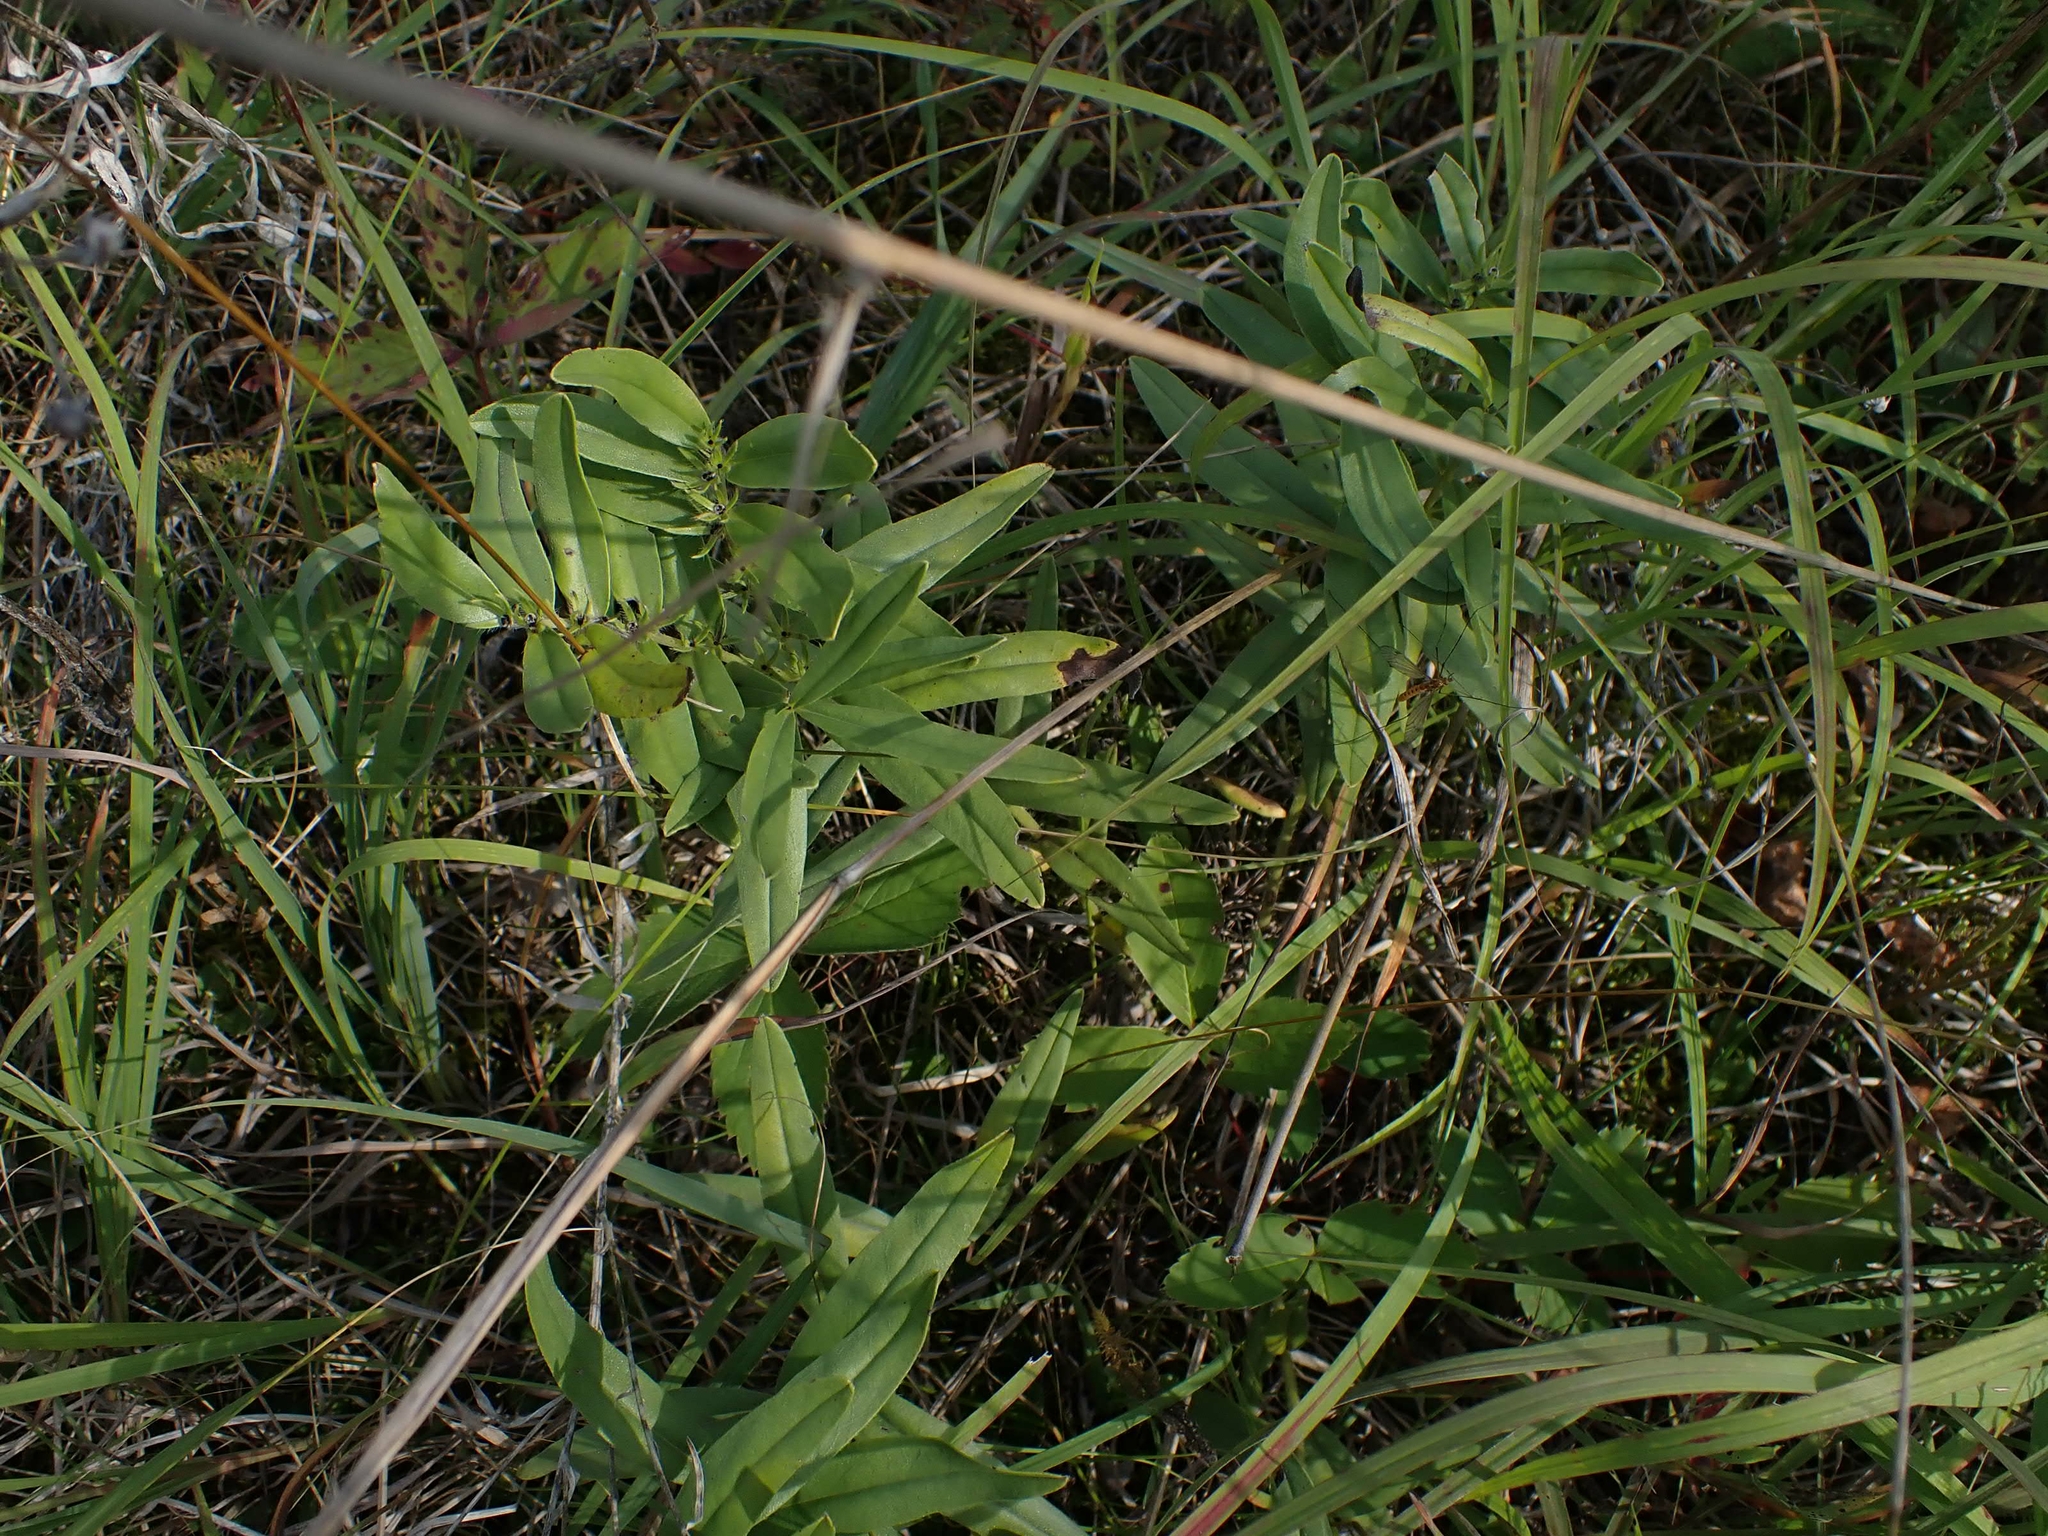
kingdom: Plantae
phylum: Tracheophyta
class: Magnoliopsida
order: Boraginales
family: Boraginaceae
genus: Lithospermum
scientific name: Lithospermum canescens
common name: Hoary puccoon
